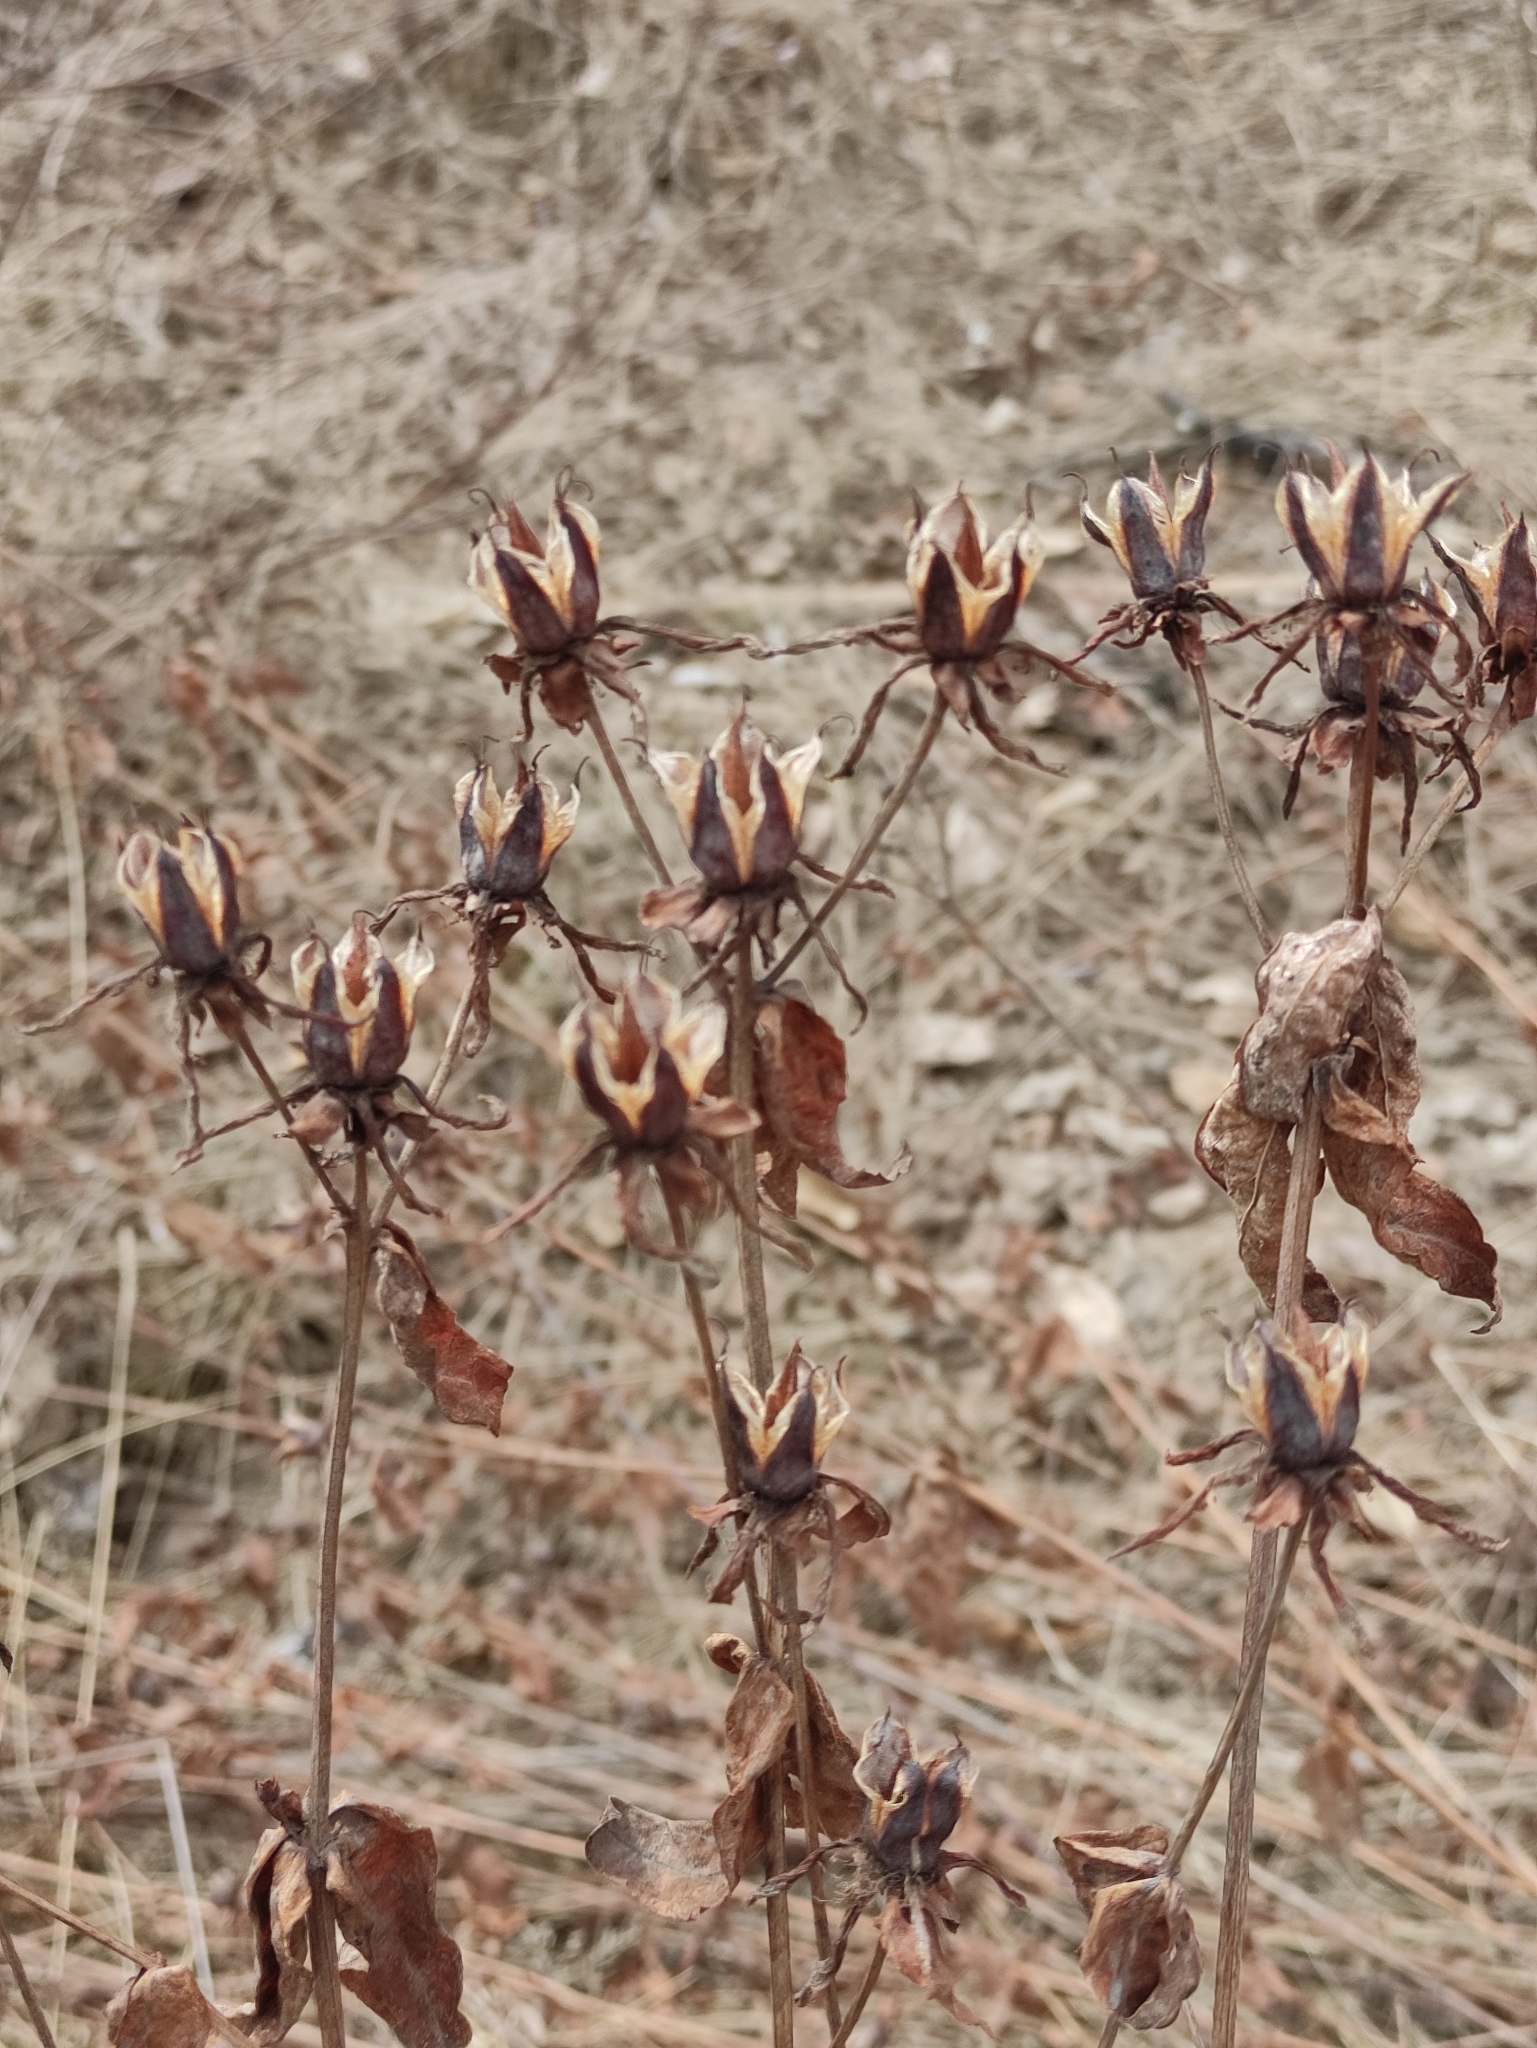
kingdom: Plantae
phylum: Tracheophyta
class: Magnoliopsida
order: Malpighiales
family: Hypericaceae
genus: Hypericum
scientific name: Hypericum ascyron
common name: Giant st. john's-wort
